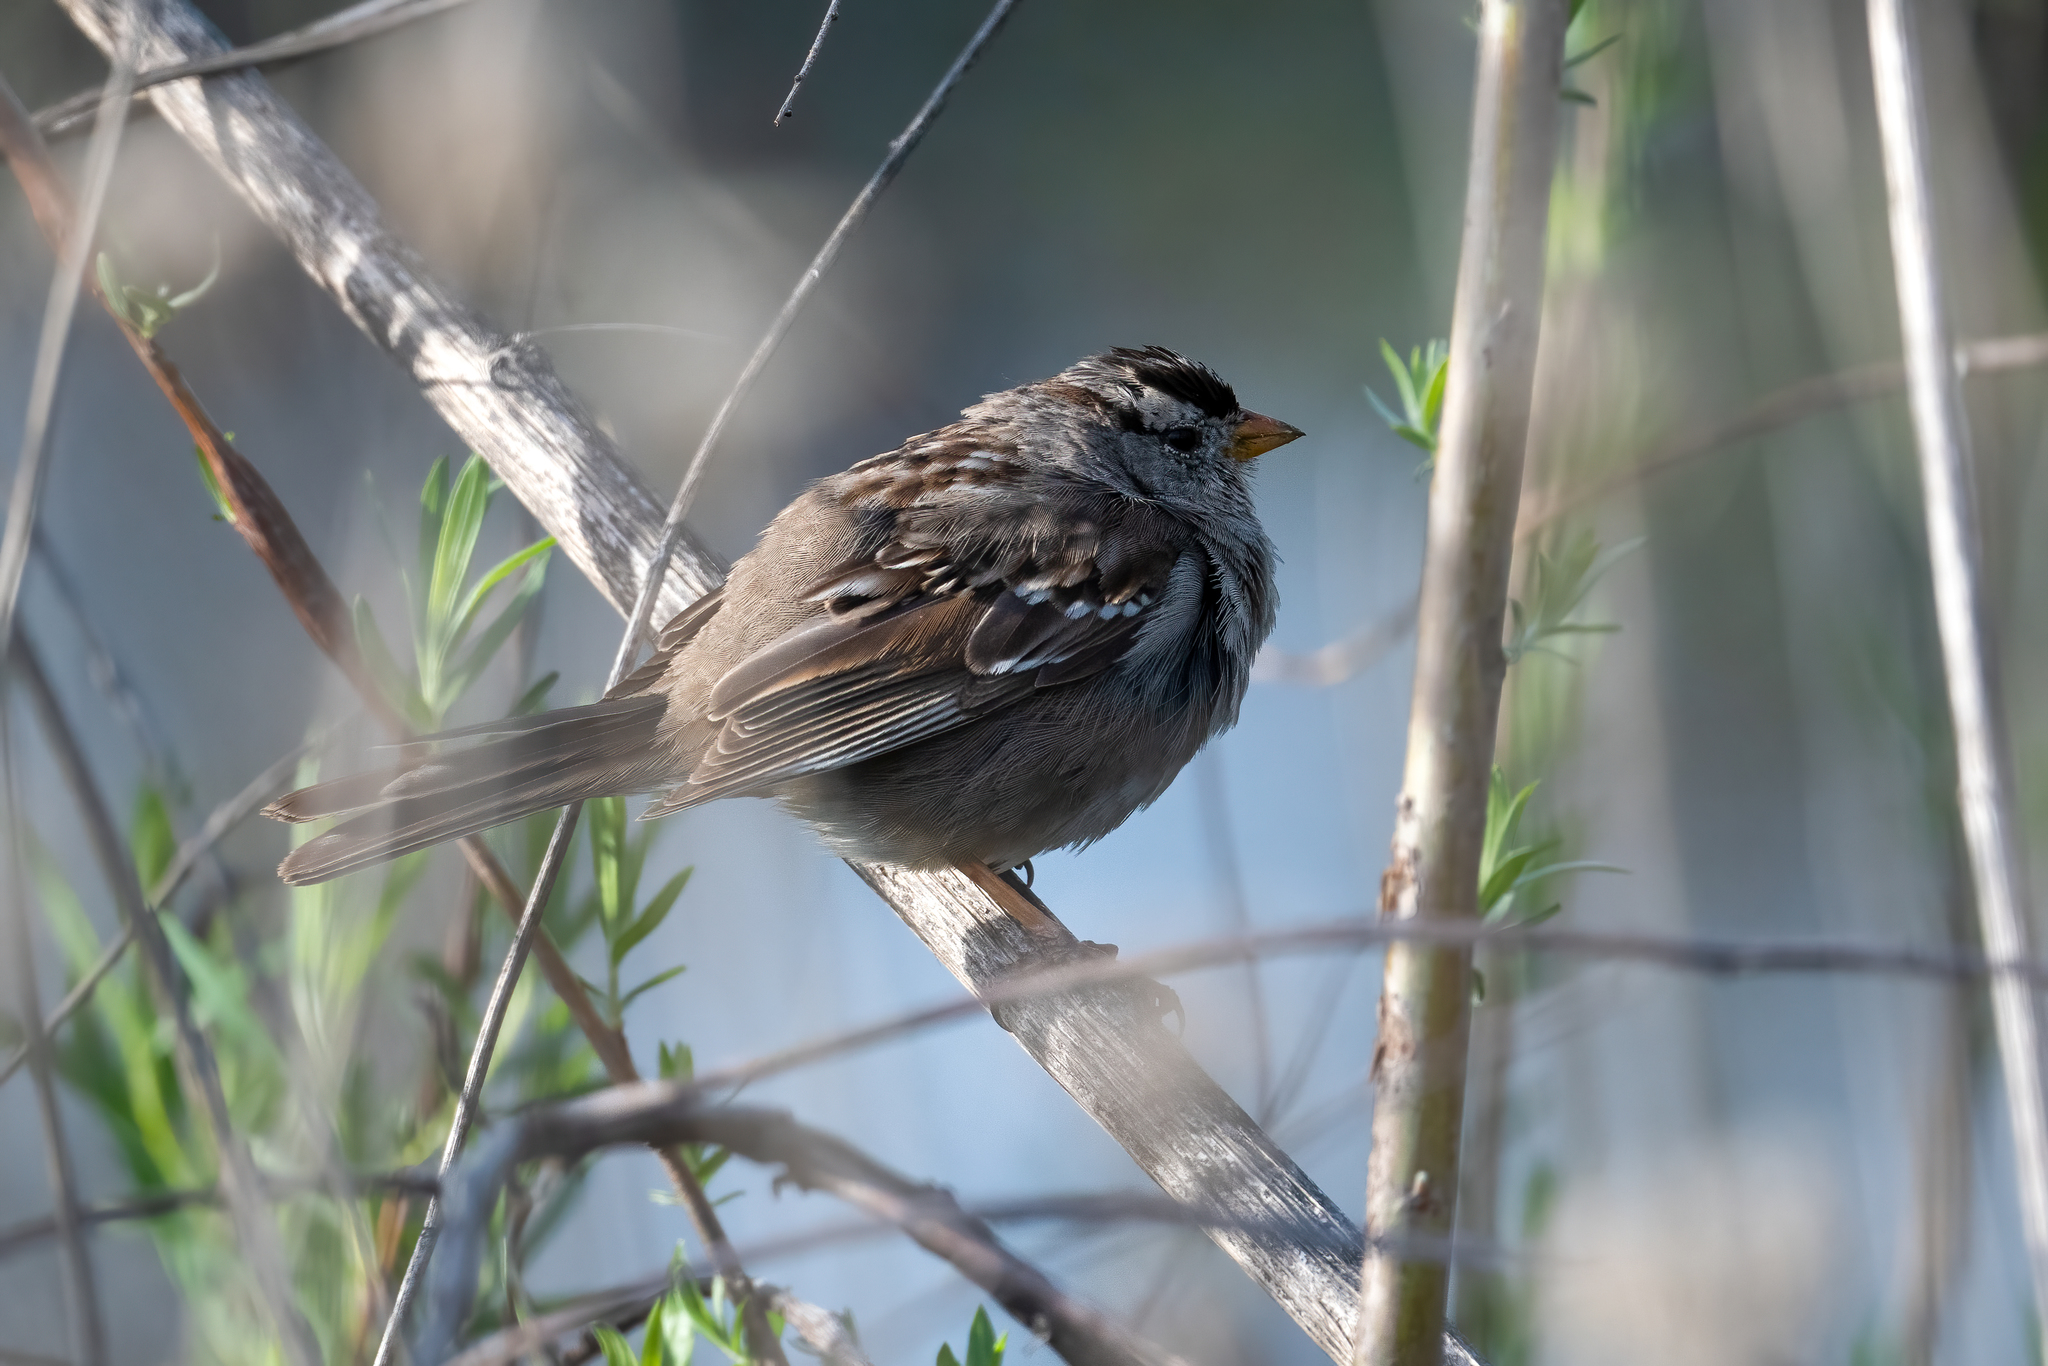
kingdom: Animalia
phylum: Chordata
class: Aves
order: Passeriformes
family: Passerellidae
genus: Zonotrichia
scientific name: Zonotrichia leucophrys
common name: White-crowned sparrow
